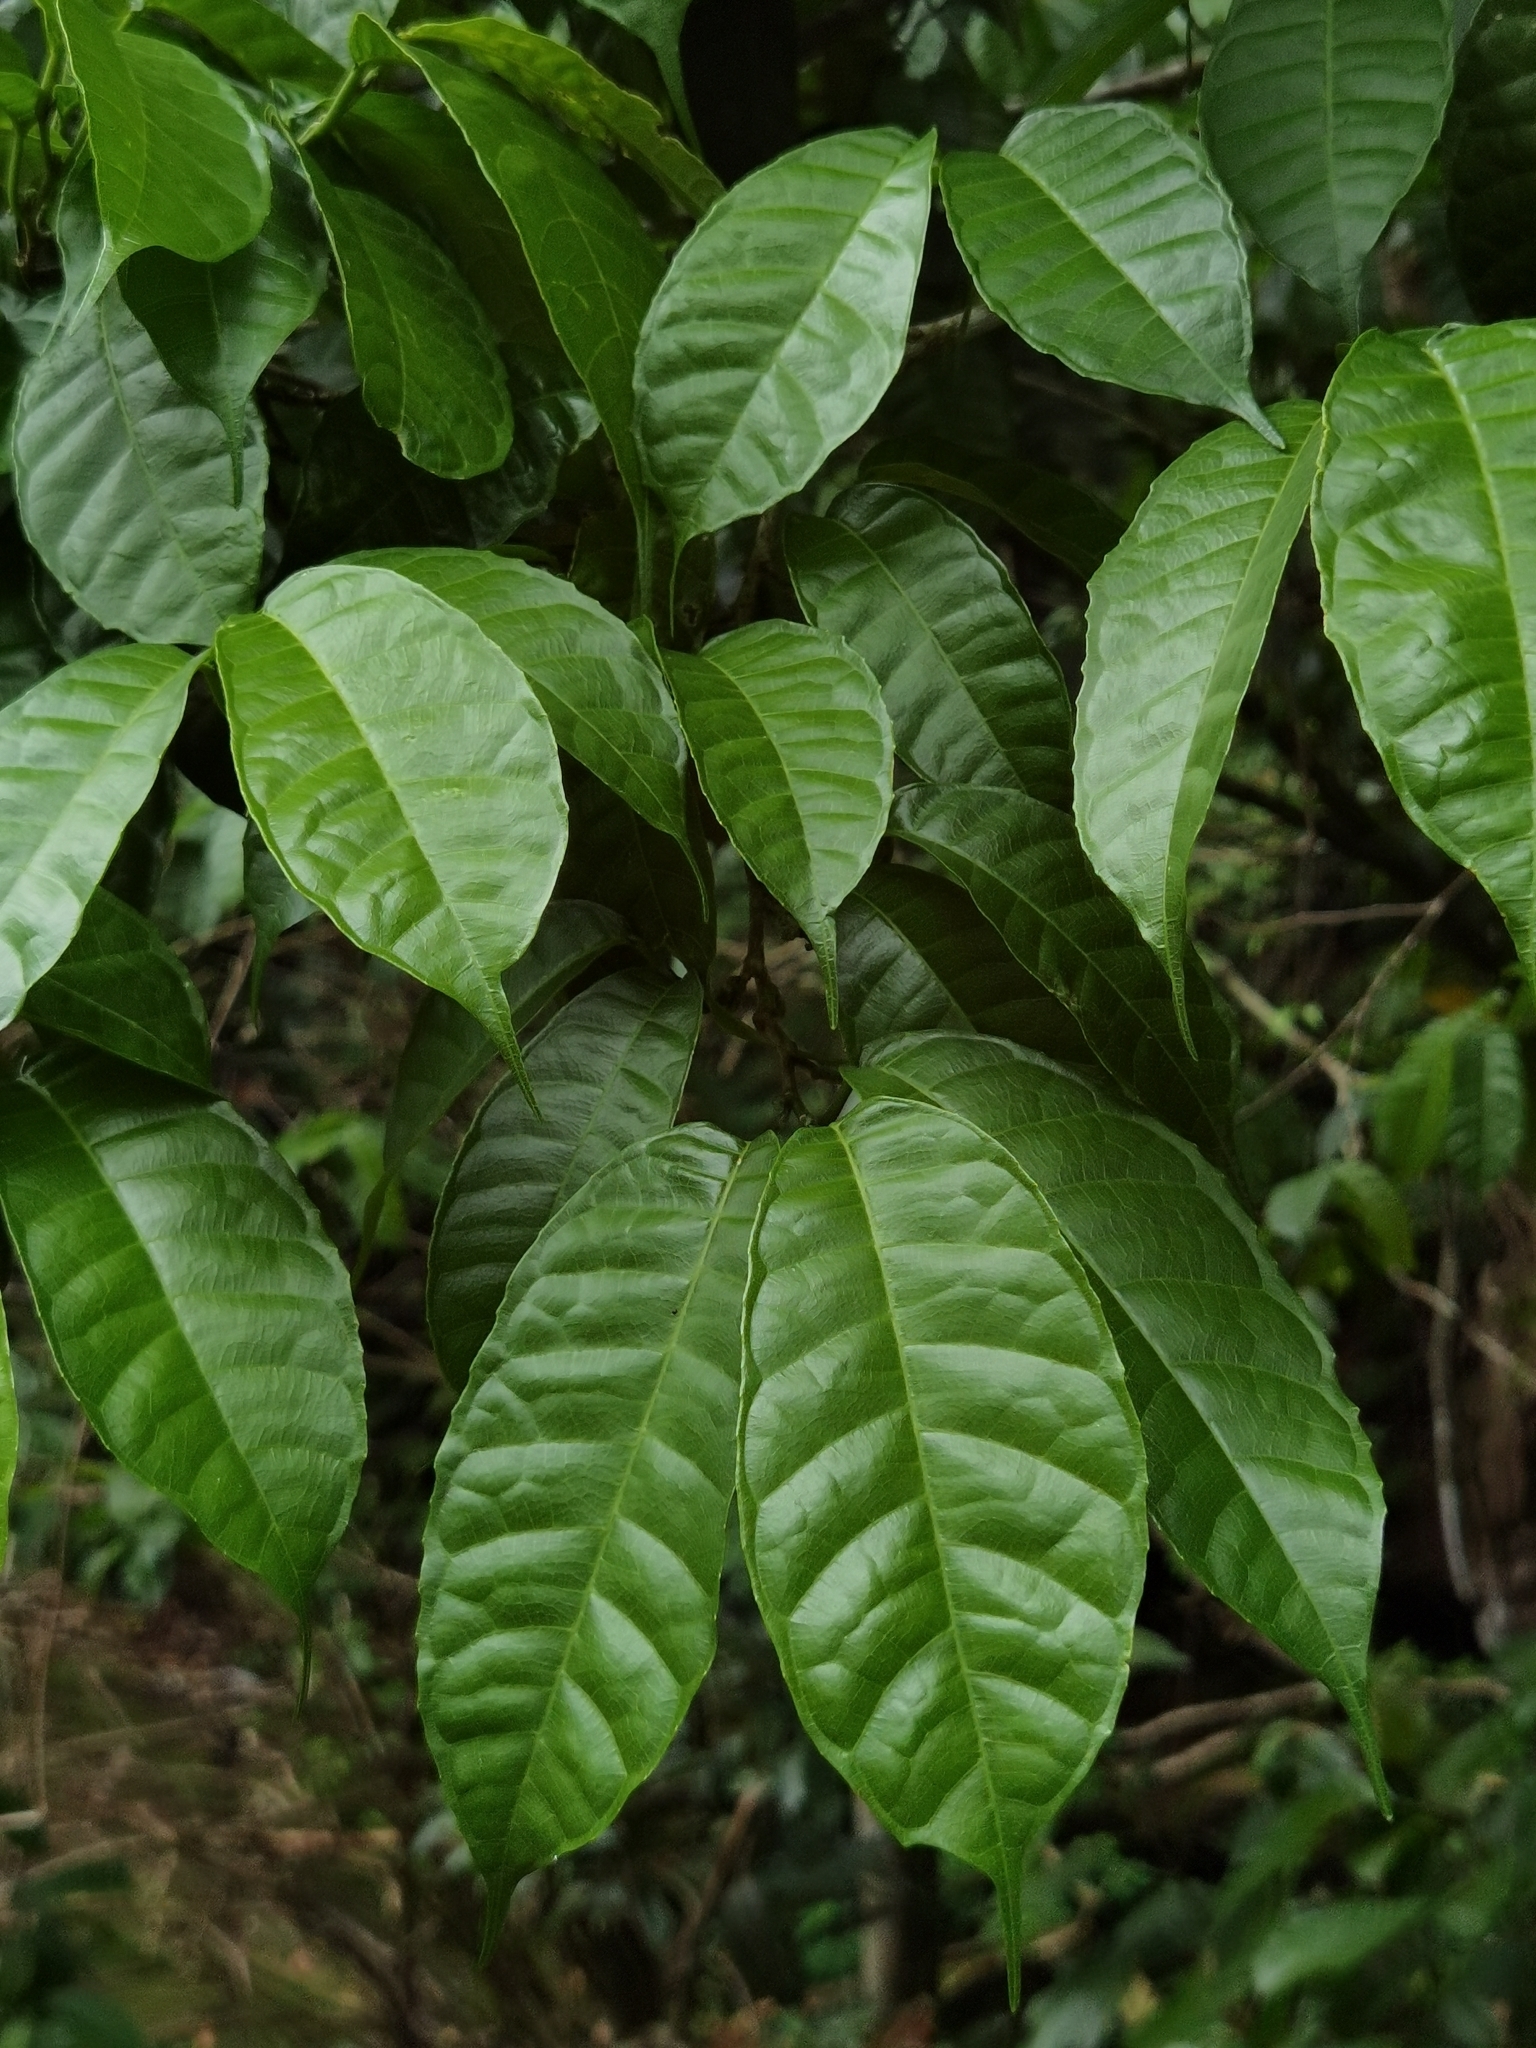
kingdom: Plantae
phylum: Tracheophyta
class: Magnoliopsida
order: Rosales
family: Moraceae
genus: Sorocea
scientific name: Sorocea trophoides
